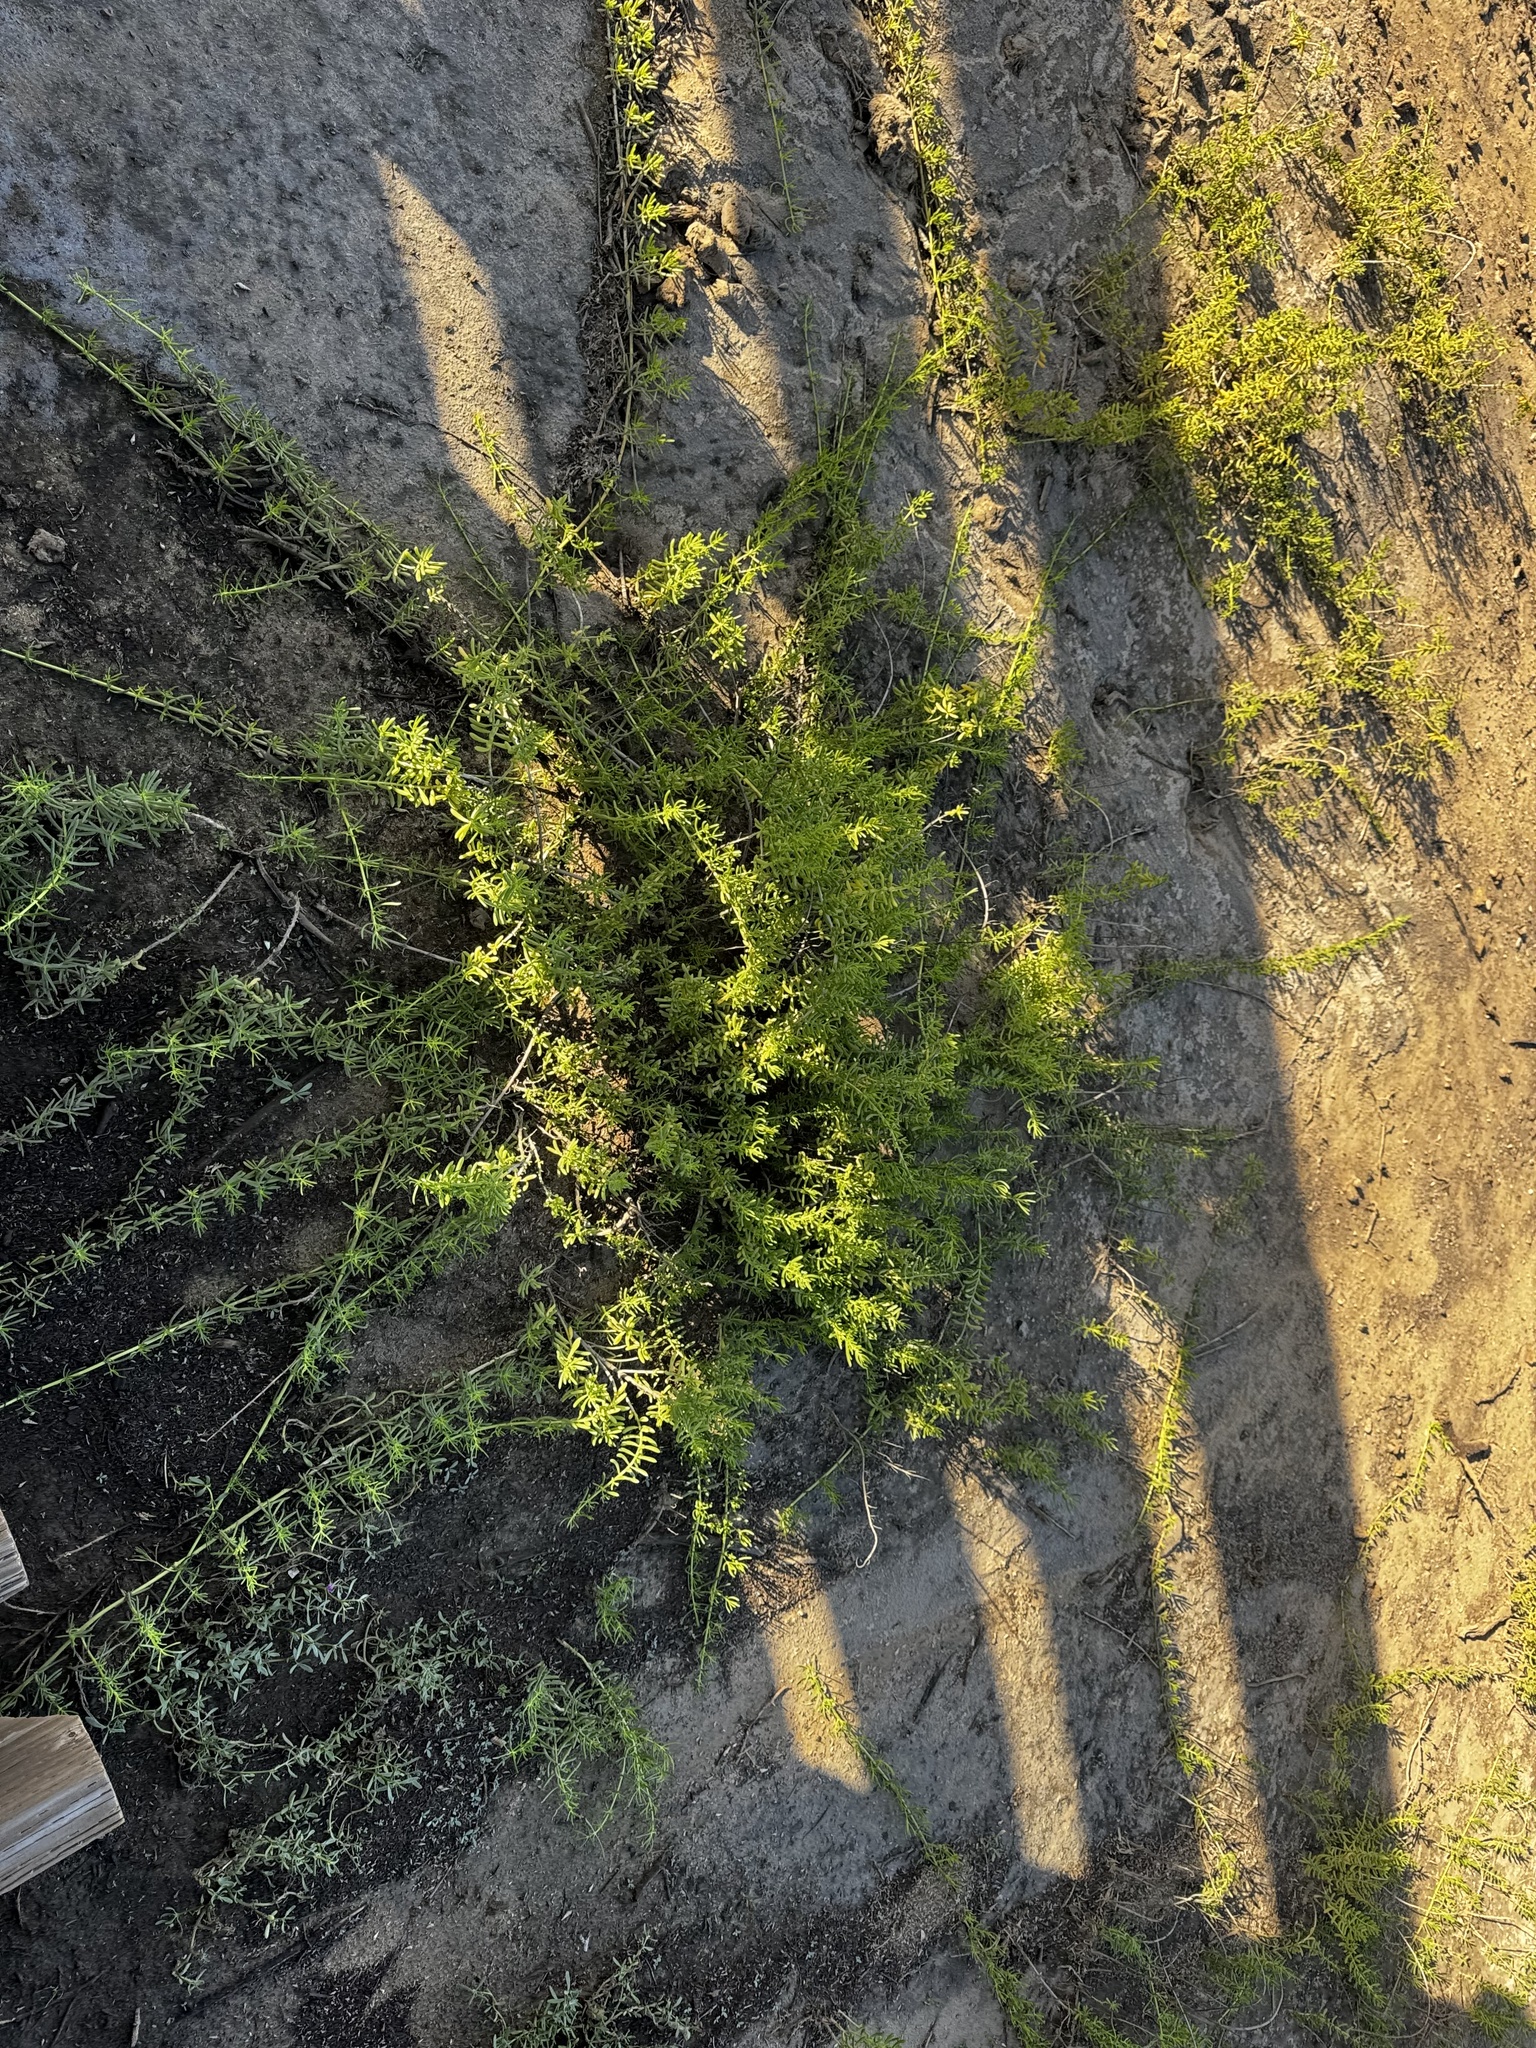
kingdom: Plantae
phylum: Tracheophyta
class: Magnoliopsida
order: Brassicales
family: Bataceae
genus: Batis
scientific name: Batis maritima
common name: Turtleweed
